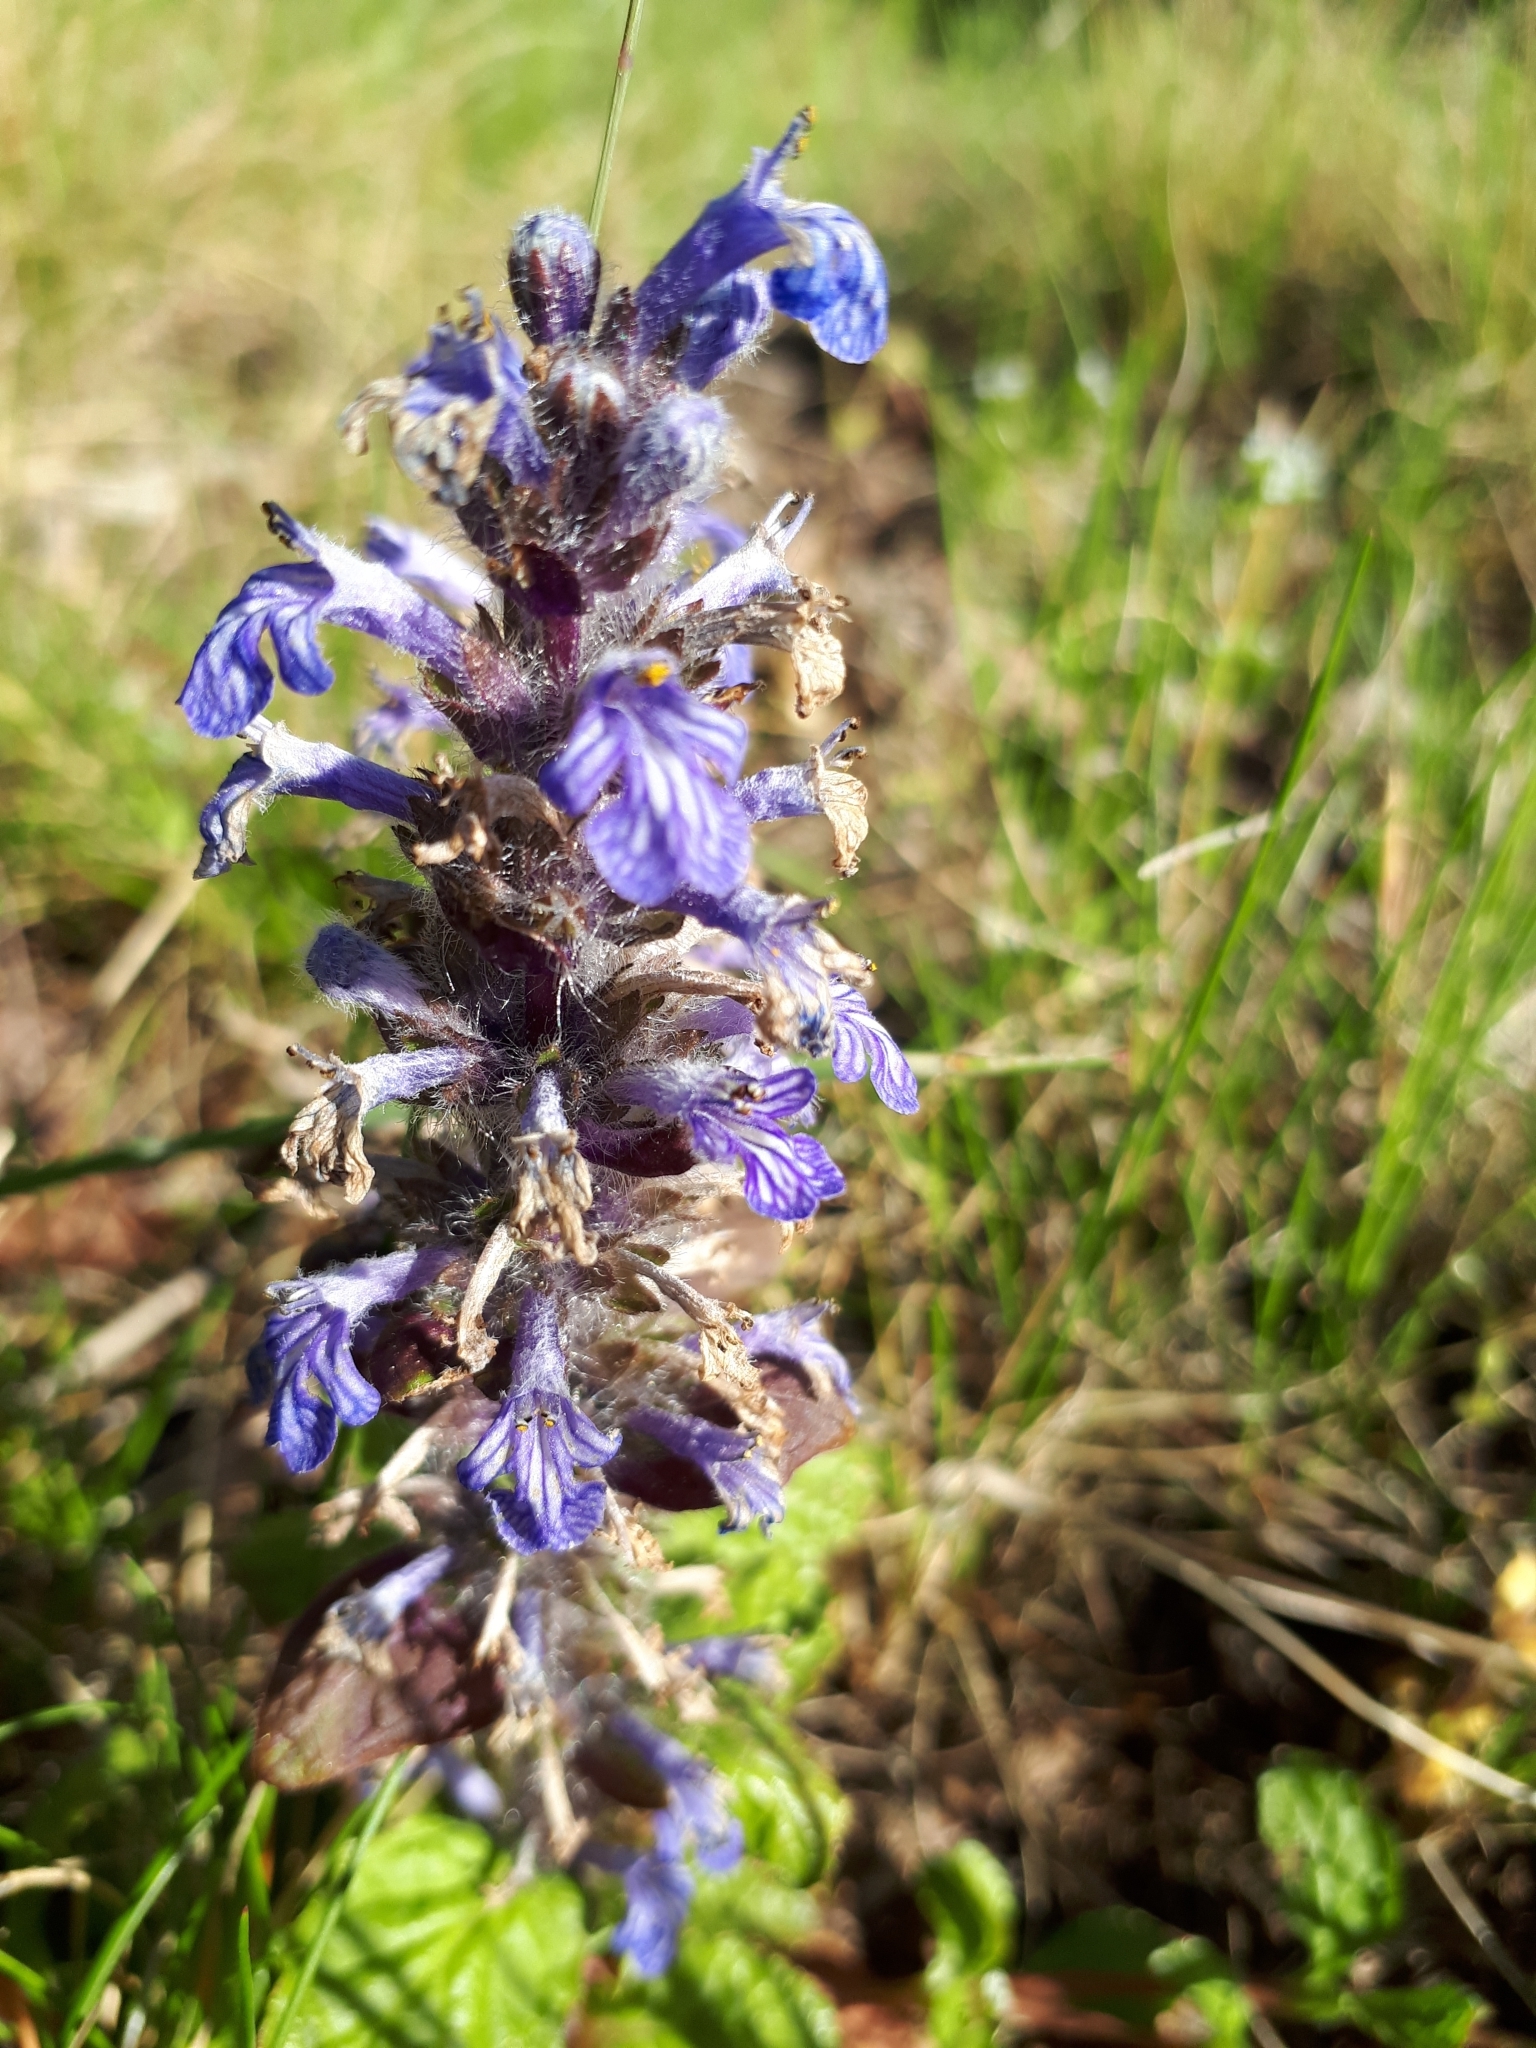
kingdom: Plantae
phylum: Tracheophyta
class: Magnoliopsida
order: Lamiales
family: Lamiaceae
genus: Ajuga
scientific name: Ajuga reptans
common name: Bugle
